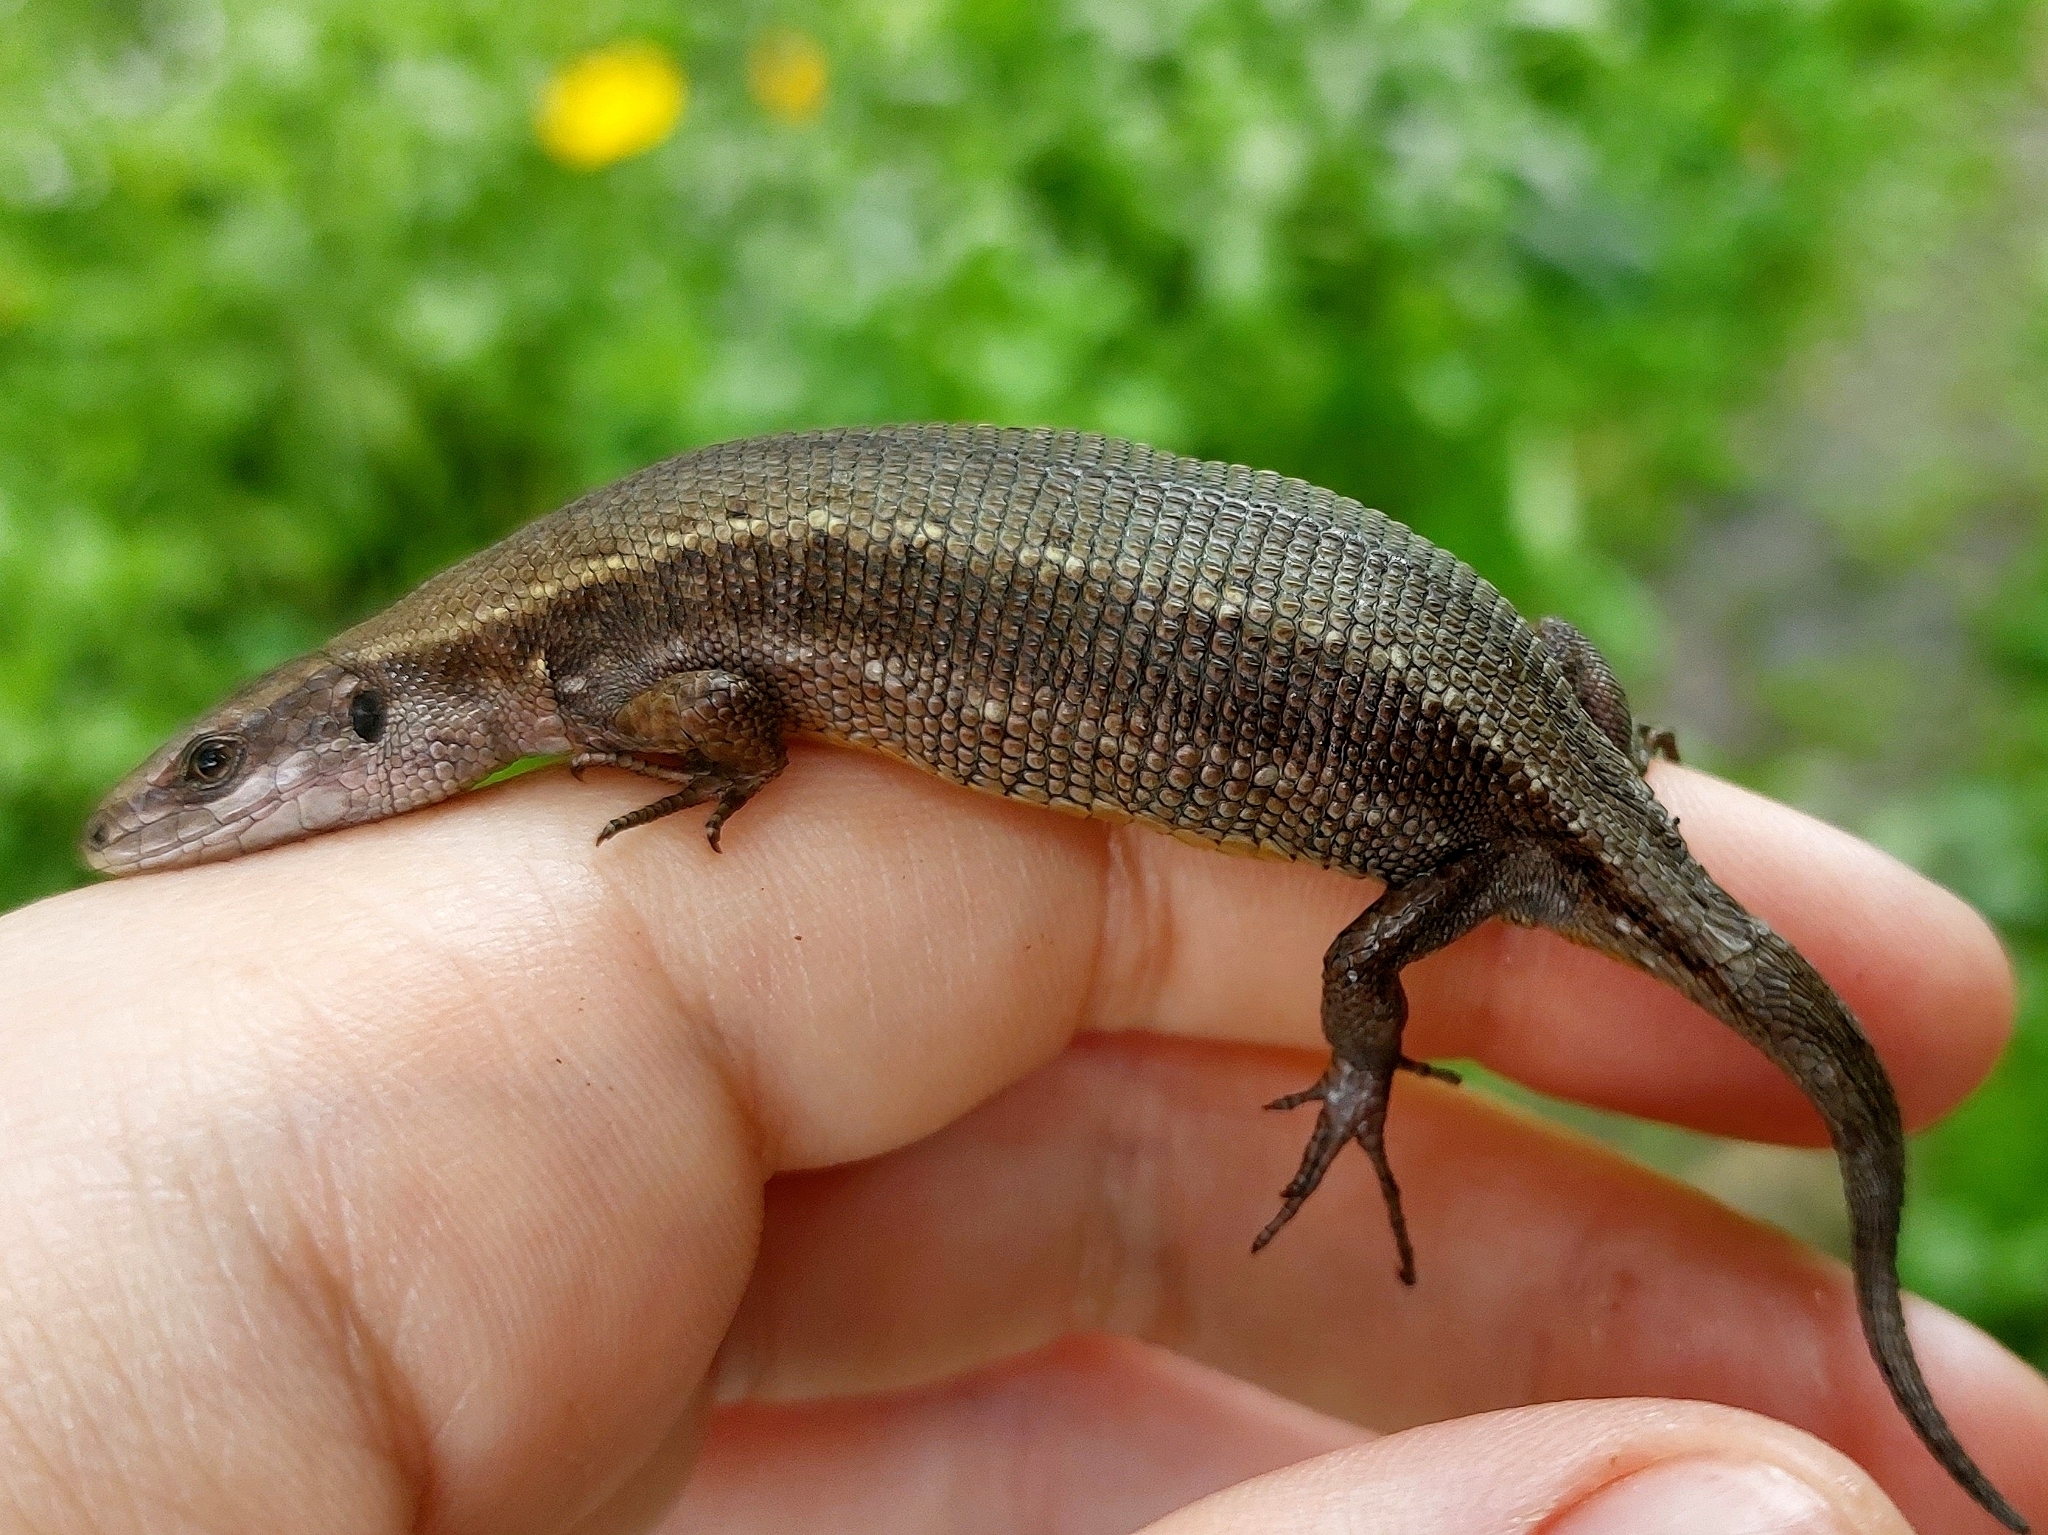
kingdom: Animalia
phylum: Chordata
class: Squamata
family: Lacertidae
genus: Zootoca
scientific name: Zootoca vivipara
